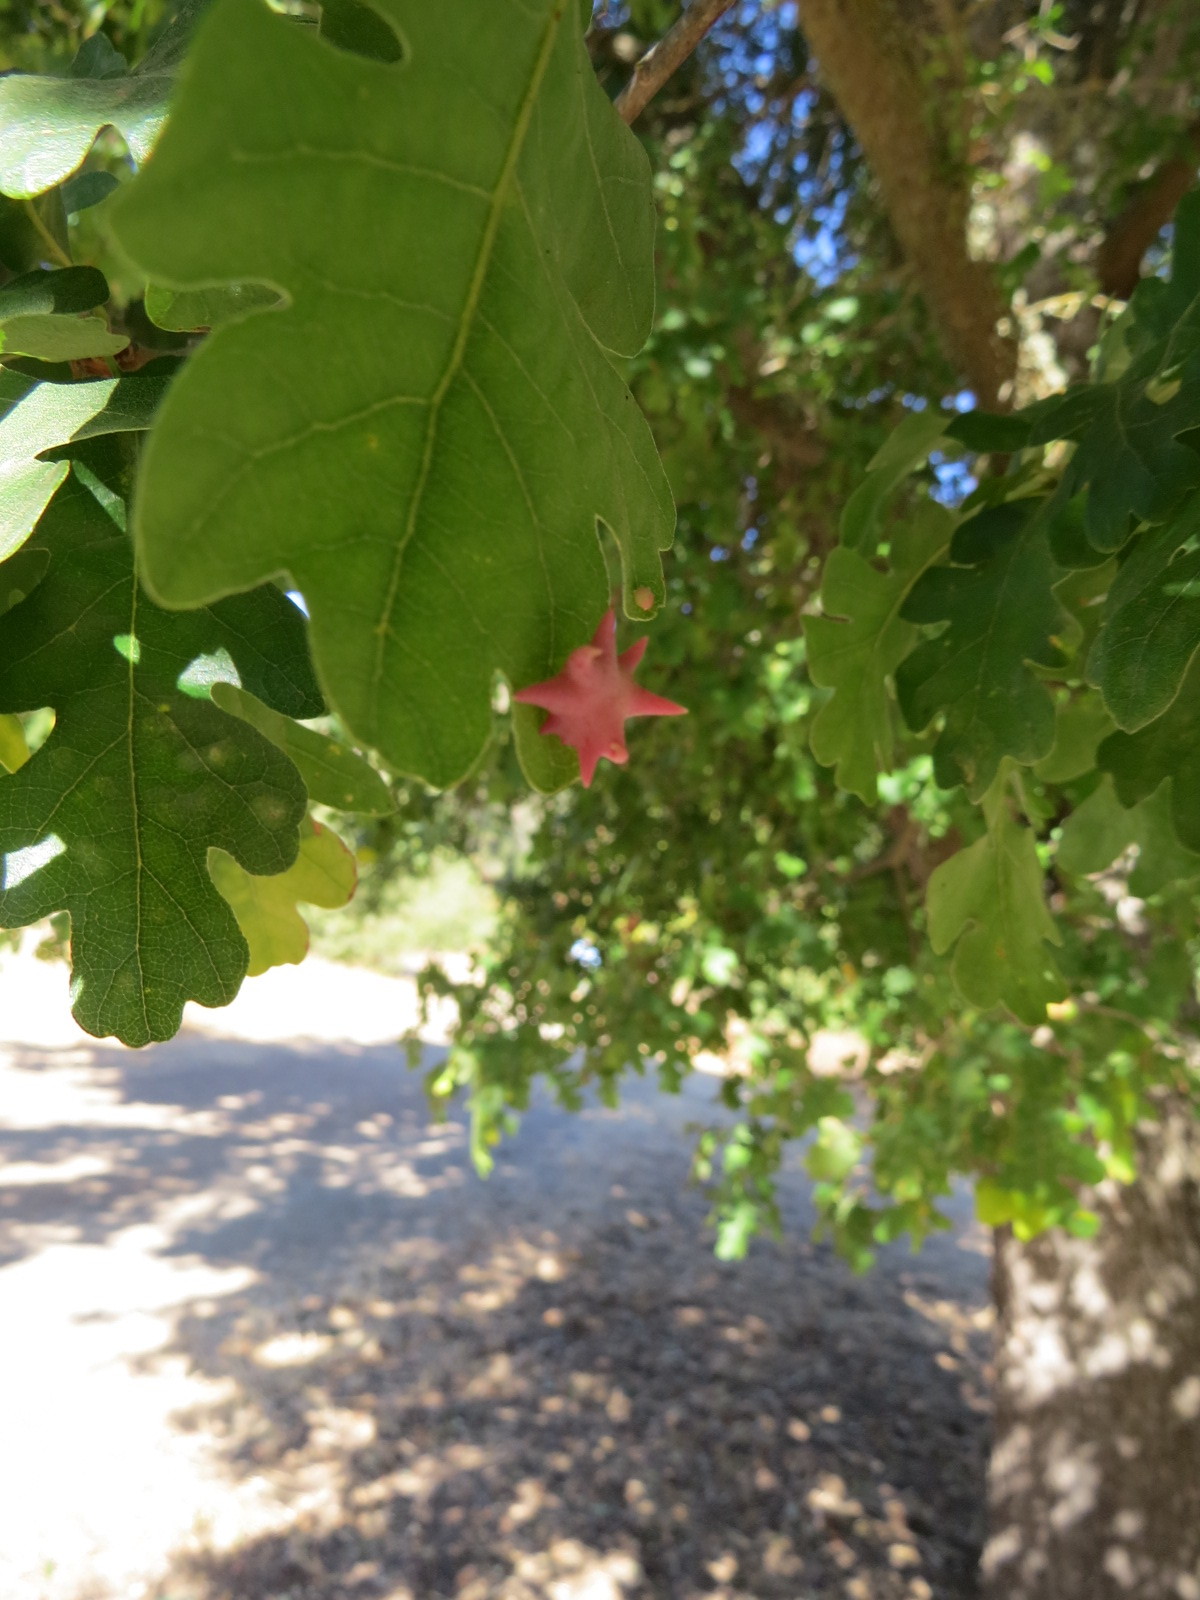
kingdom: Animalia
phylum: Arthropoda
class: Insecta
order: Hymenoptera
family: Cynipidae
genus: Cynips
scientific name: Cynips douglasi
